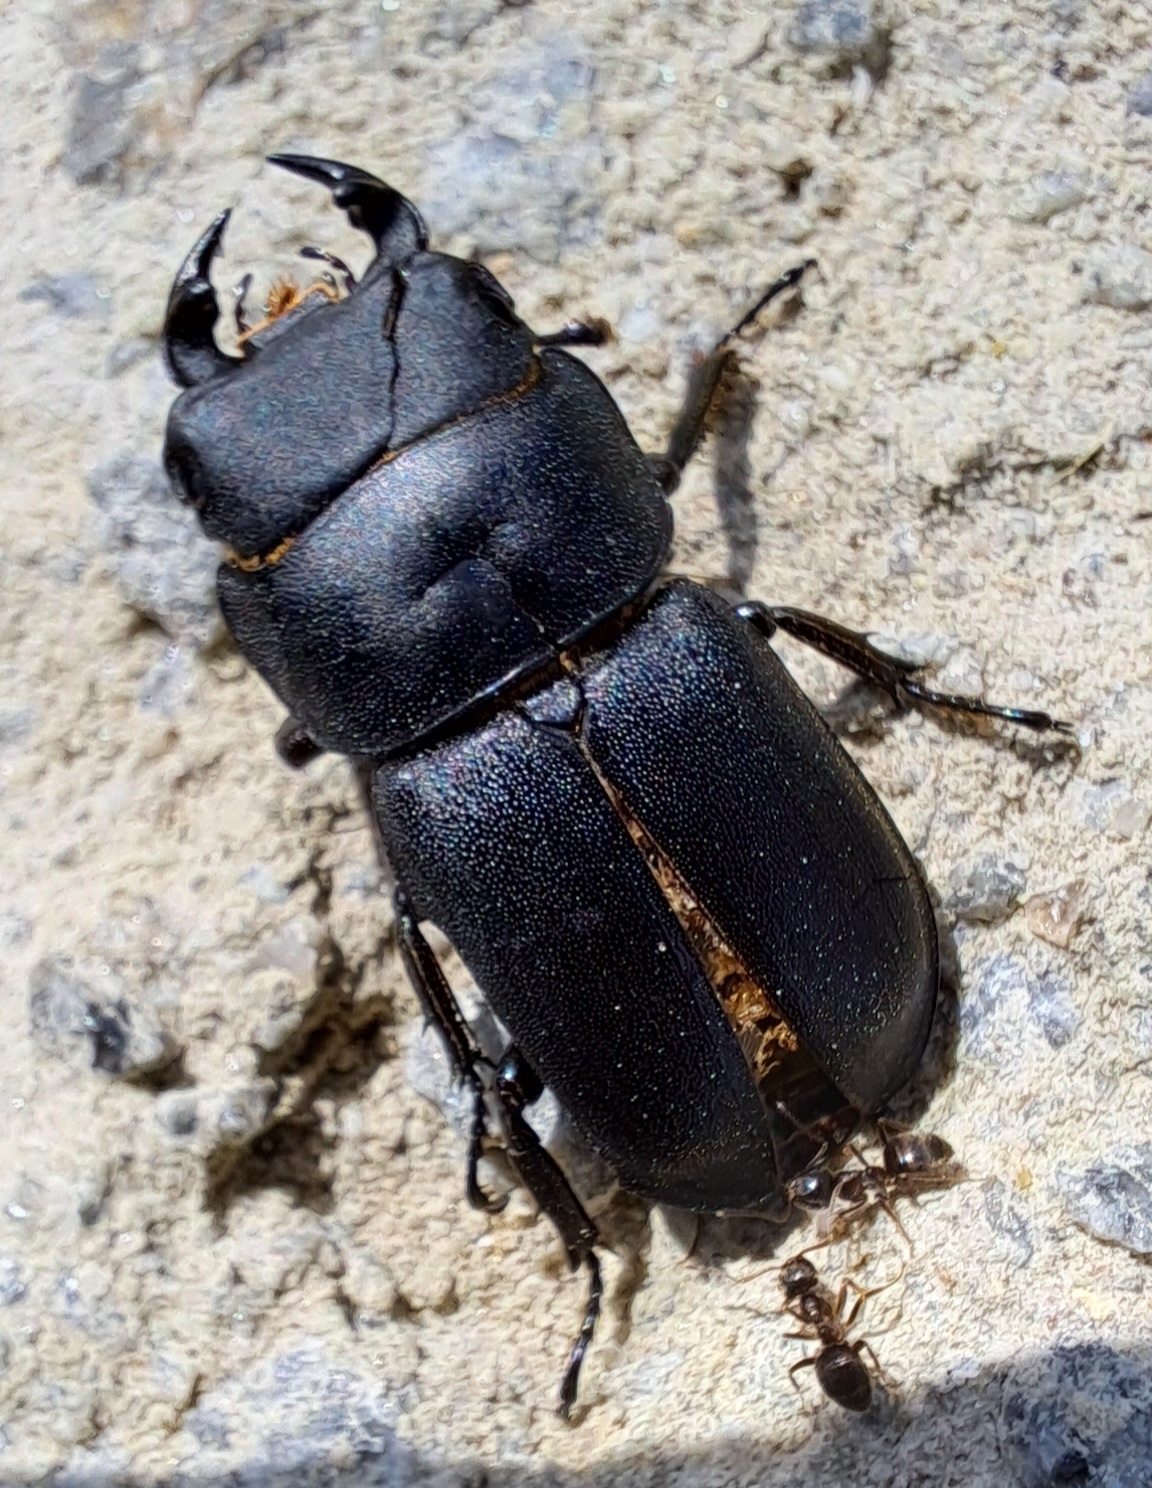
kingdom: Animalia
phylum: Arthropoda
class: Insecta
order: Coleoptera
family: Lucanidae
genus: Dorcus
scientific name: Dorcus parallelipipedus
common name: Lesser stag beetle
